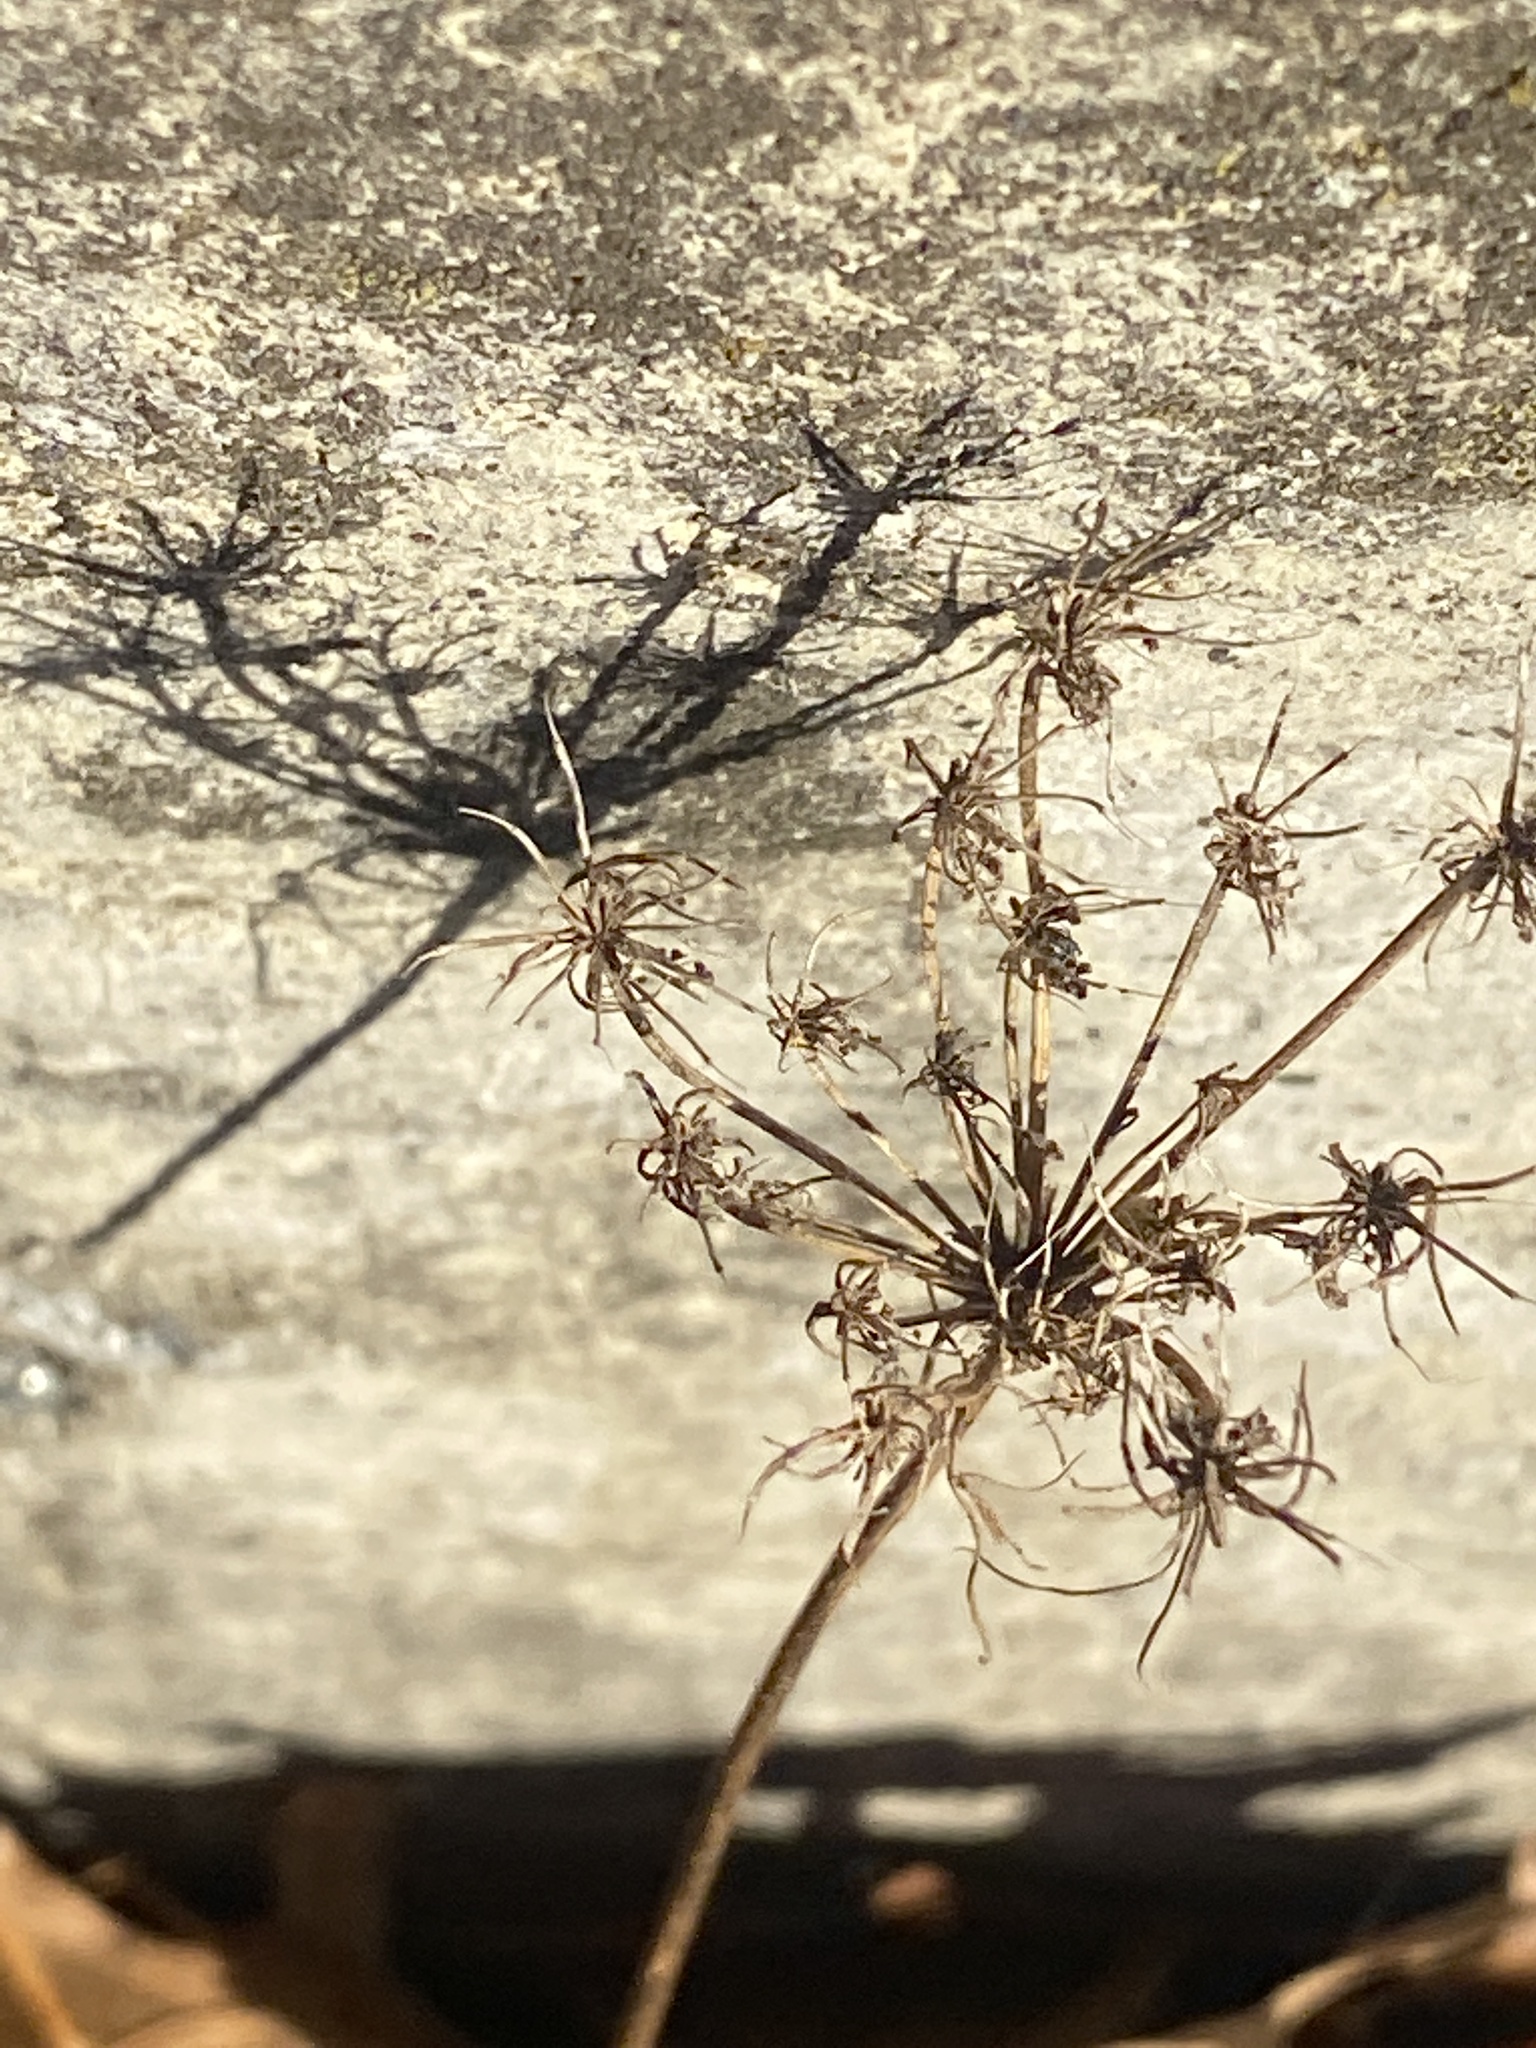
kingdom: Plantae
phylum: Tracheophyta
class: Magnoliopsida
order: Apiales
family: Apiaceae
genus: Daucus
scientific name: Daucus carota
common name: Wild carrot
